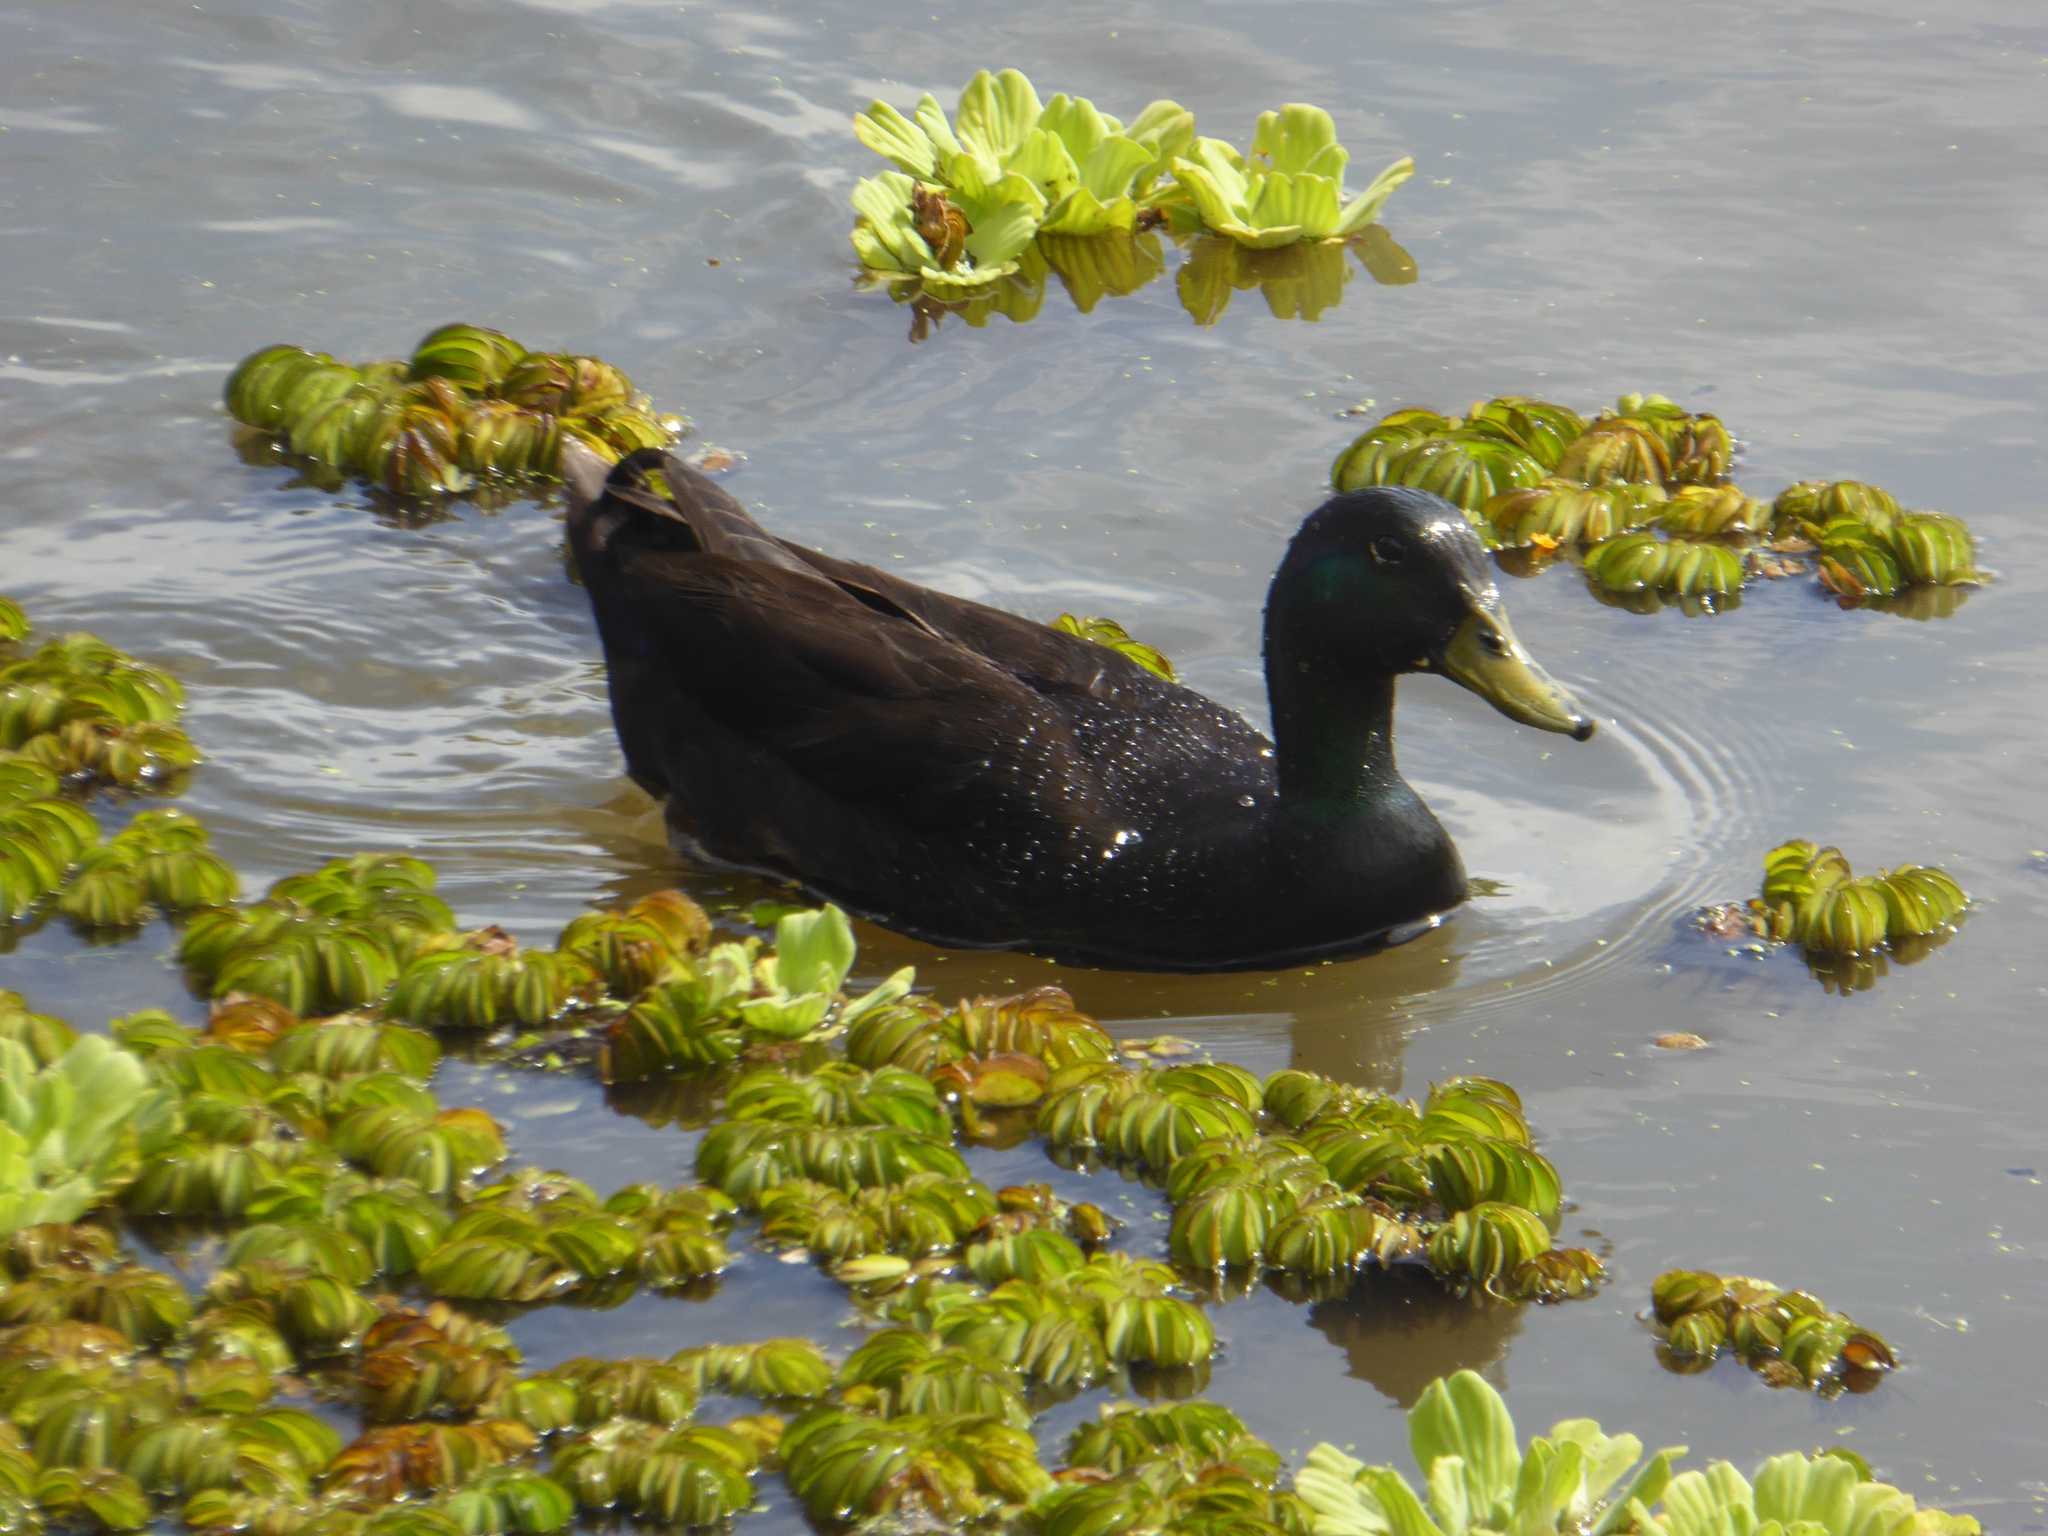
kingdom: Animalia
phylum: Chordata
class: Aves
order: Anseriformes
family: Anatidae
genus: Anas
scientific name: Anas platyrhynchos
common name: Mallard
